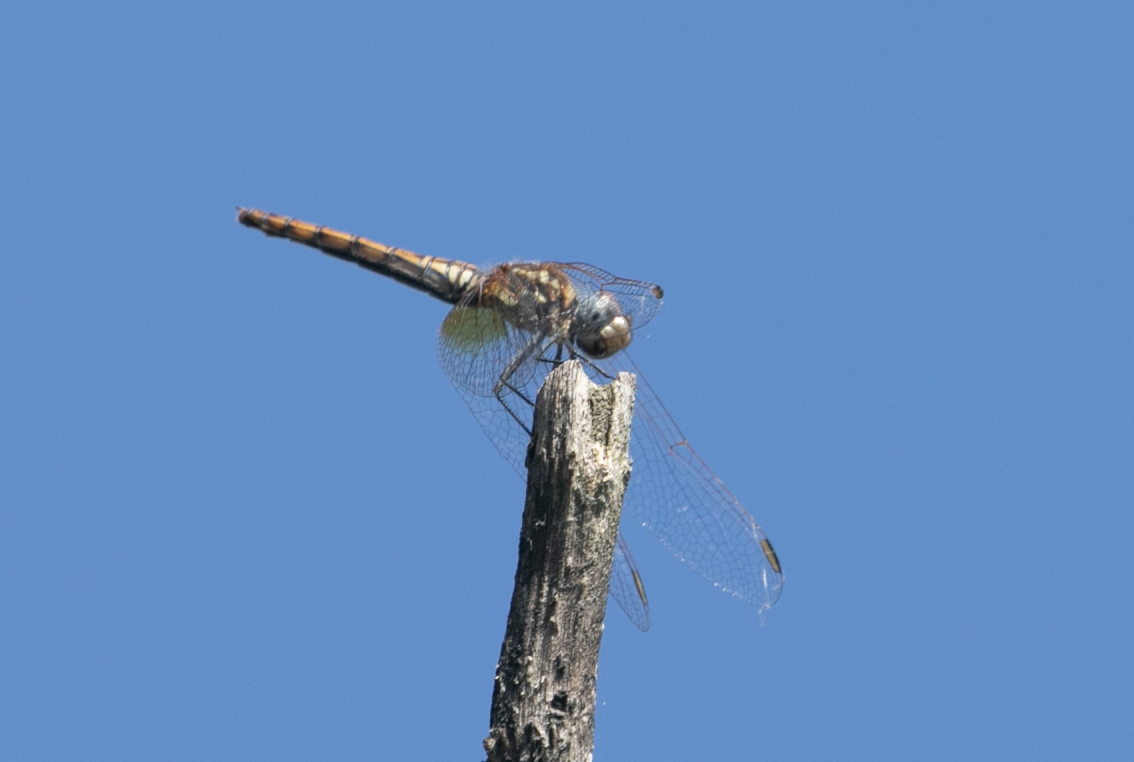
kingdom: Animalia
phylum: Arthropoda
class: Insecta
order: Odonata
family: Libellulidae
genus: Trithemis
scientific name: Trithemis annulata
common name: Violet dropwing
